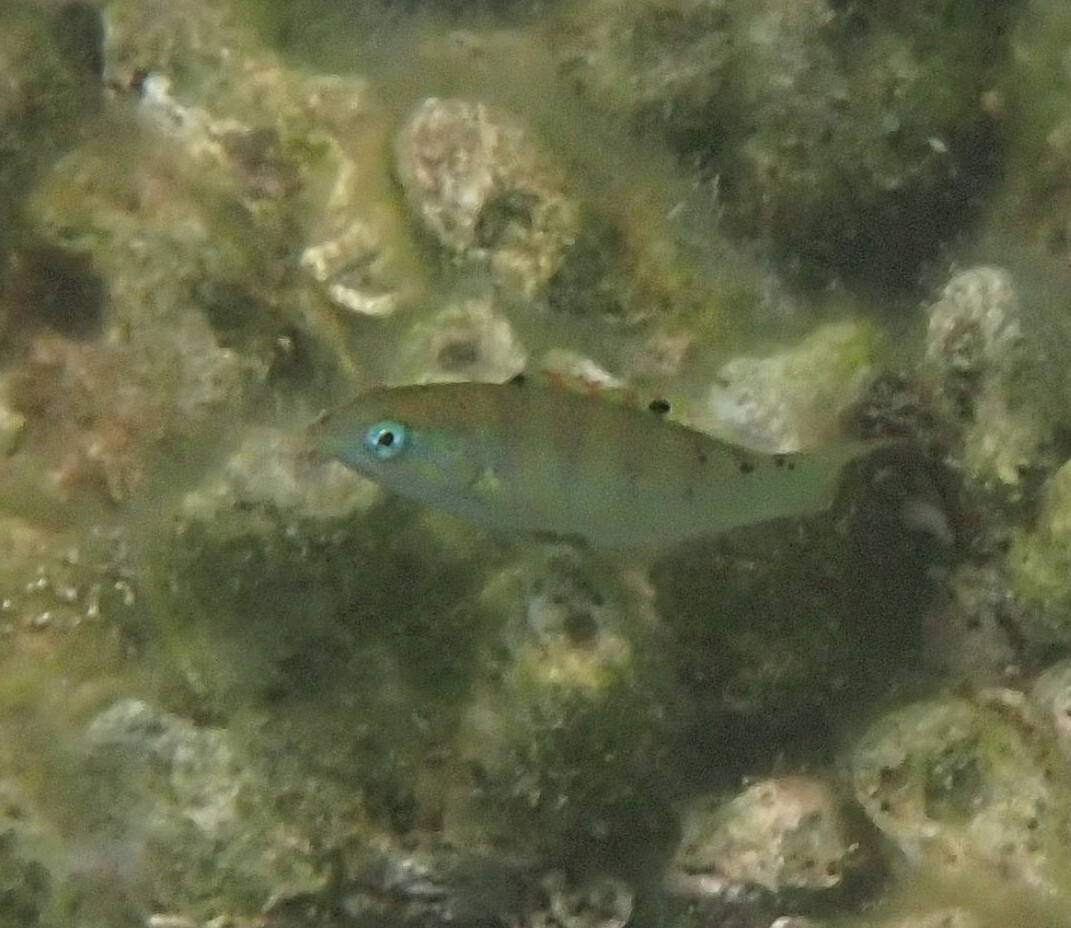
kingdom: Animalia
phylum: Chordata
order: Perciformes
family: Labridae
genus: Thalassoma
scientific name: Thalassoma hardwicke
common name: Sixbar wrasse
